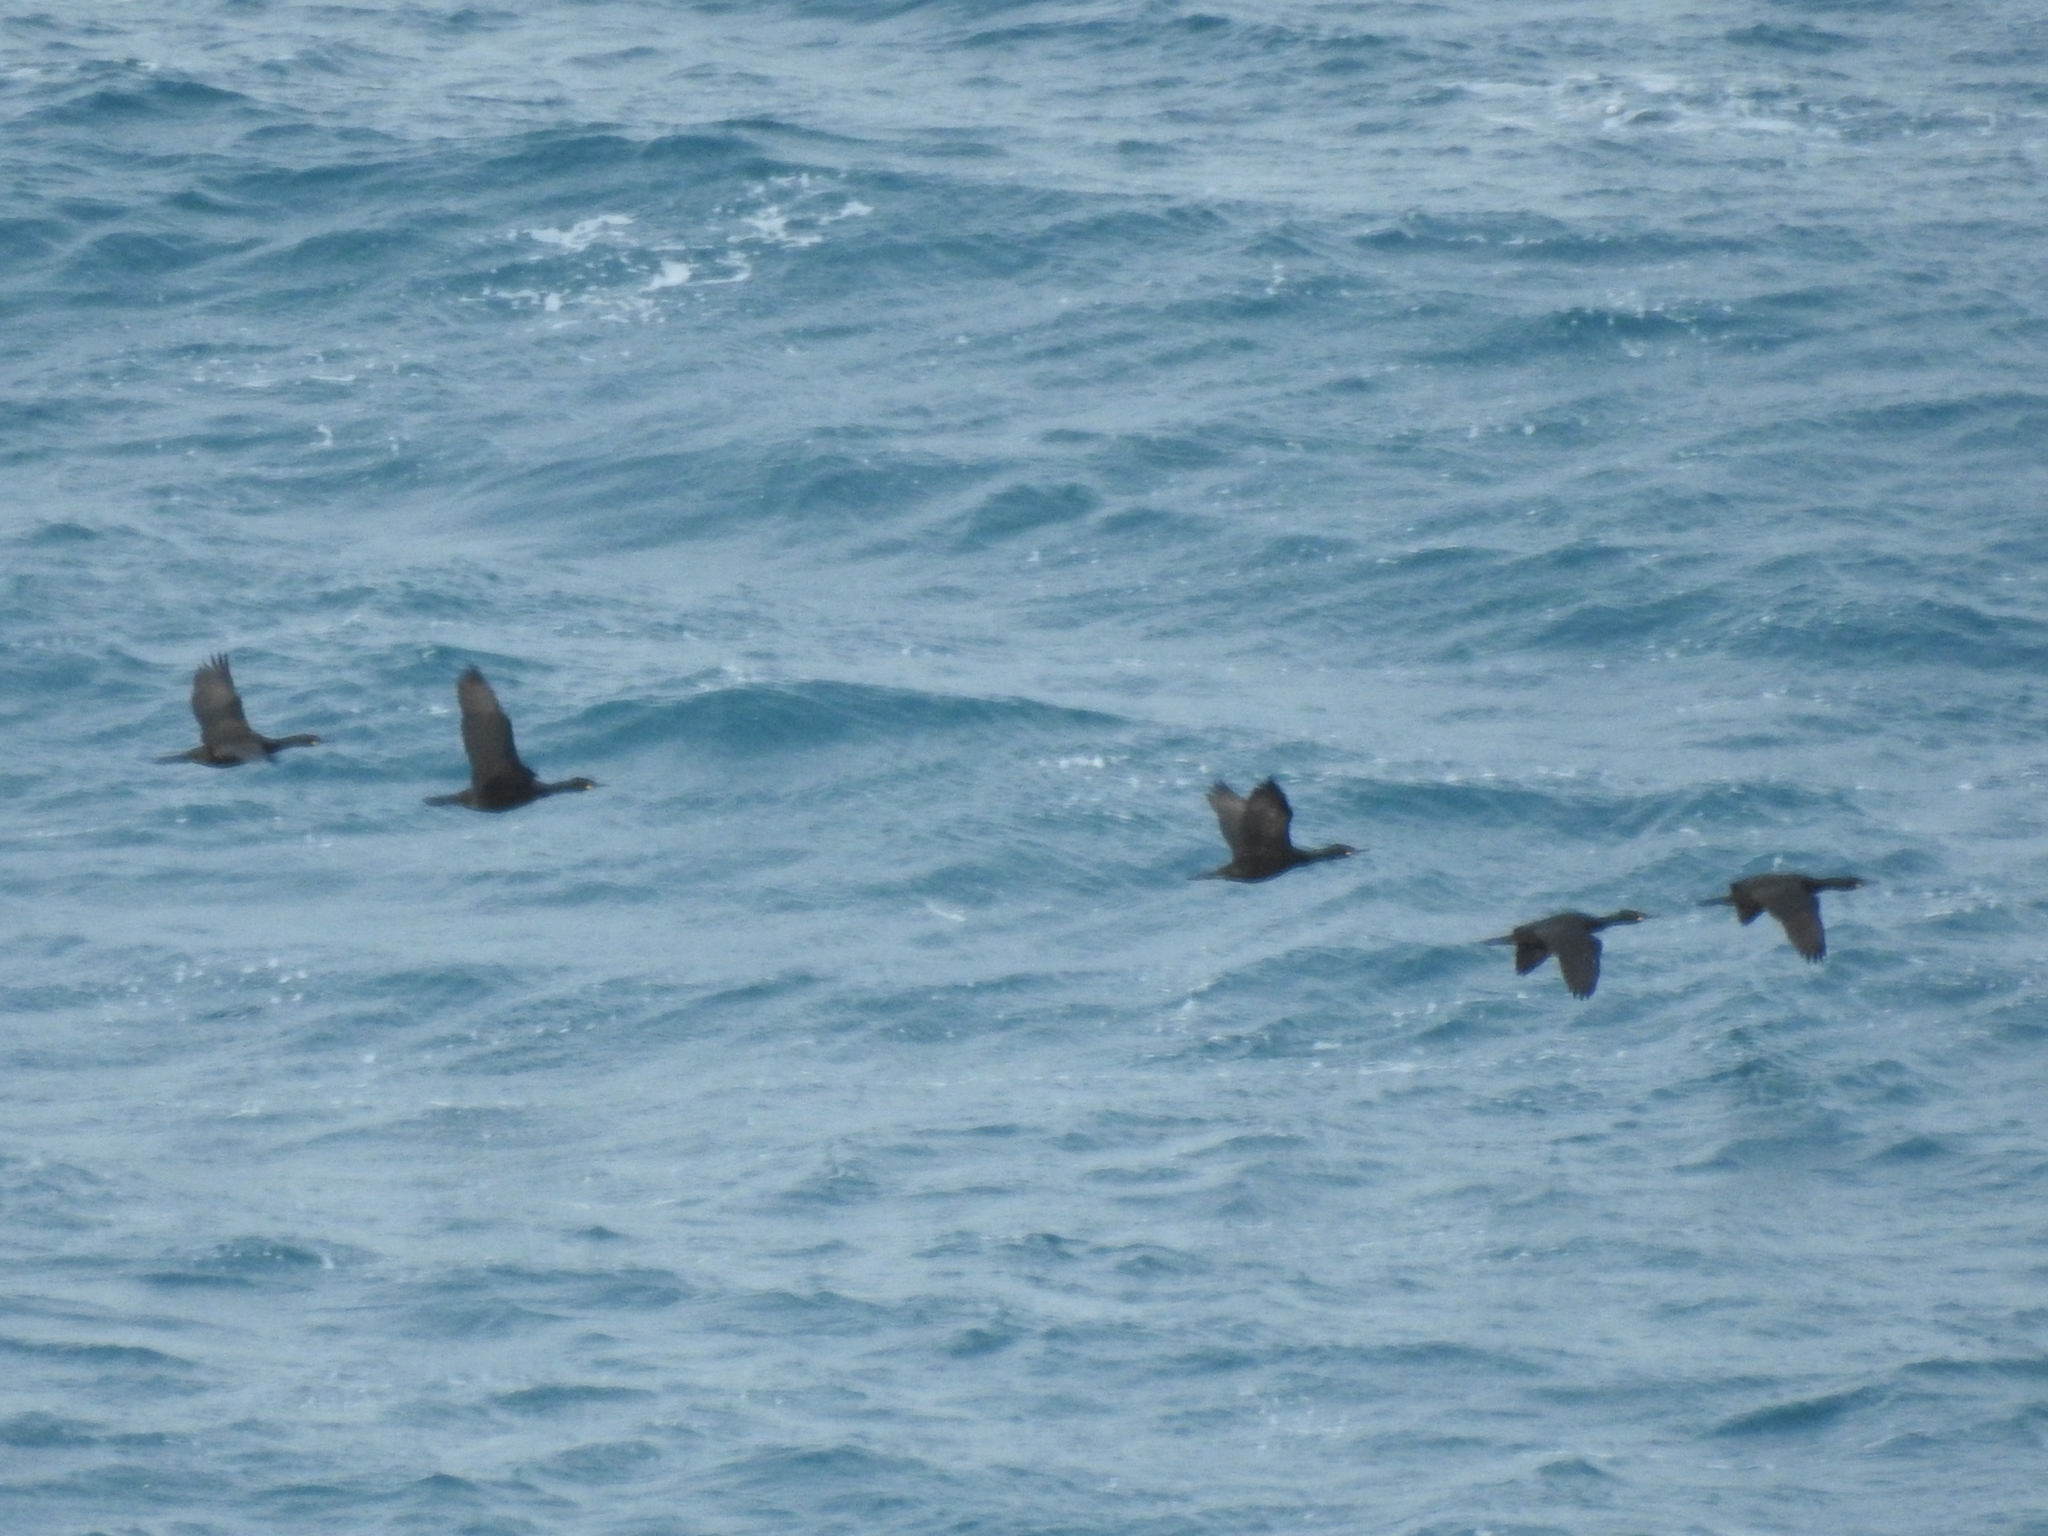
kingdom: Animalia
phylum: Chordata
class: Aves
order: Suliformes
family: Phalacrocoracidae
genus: Phalacrocorax
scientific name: Phalacrocorax aristotelis
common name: European shag
